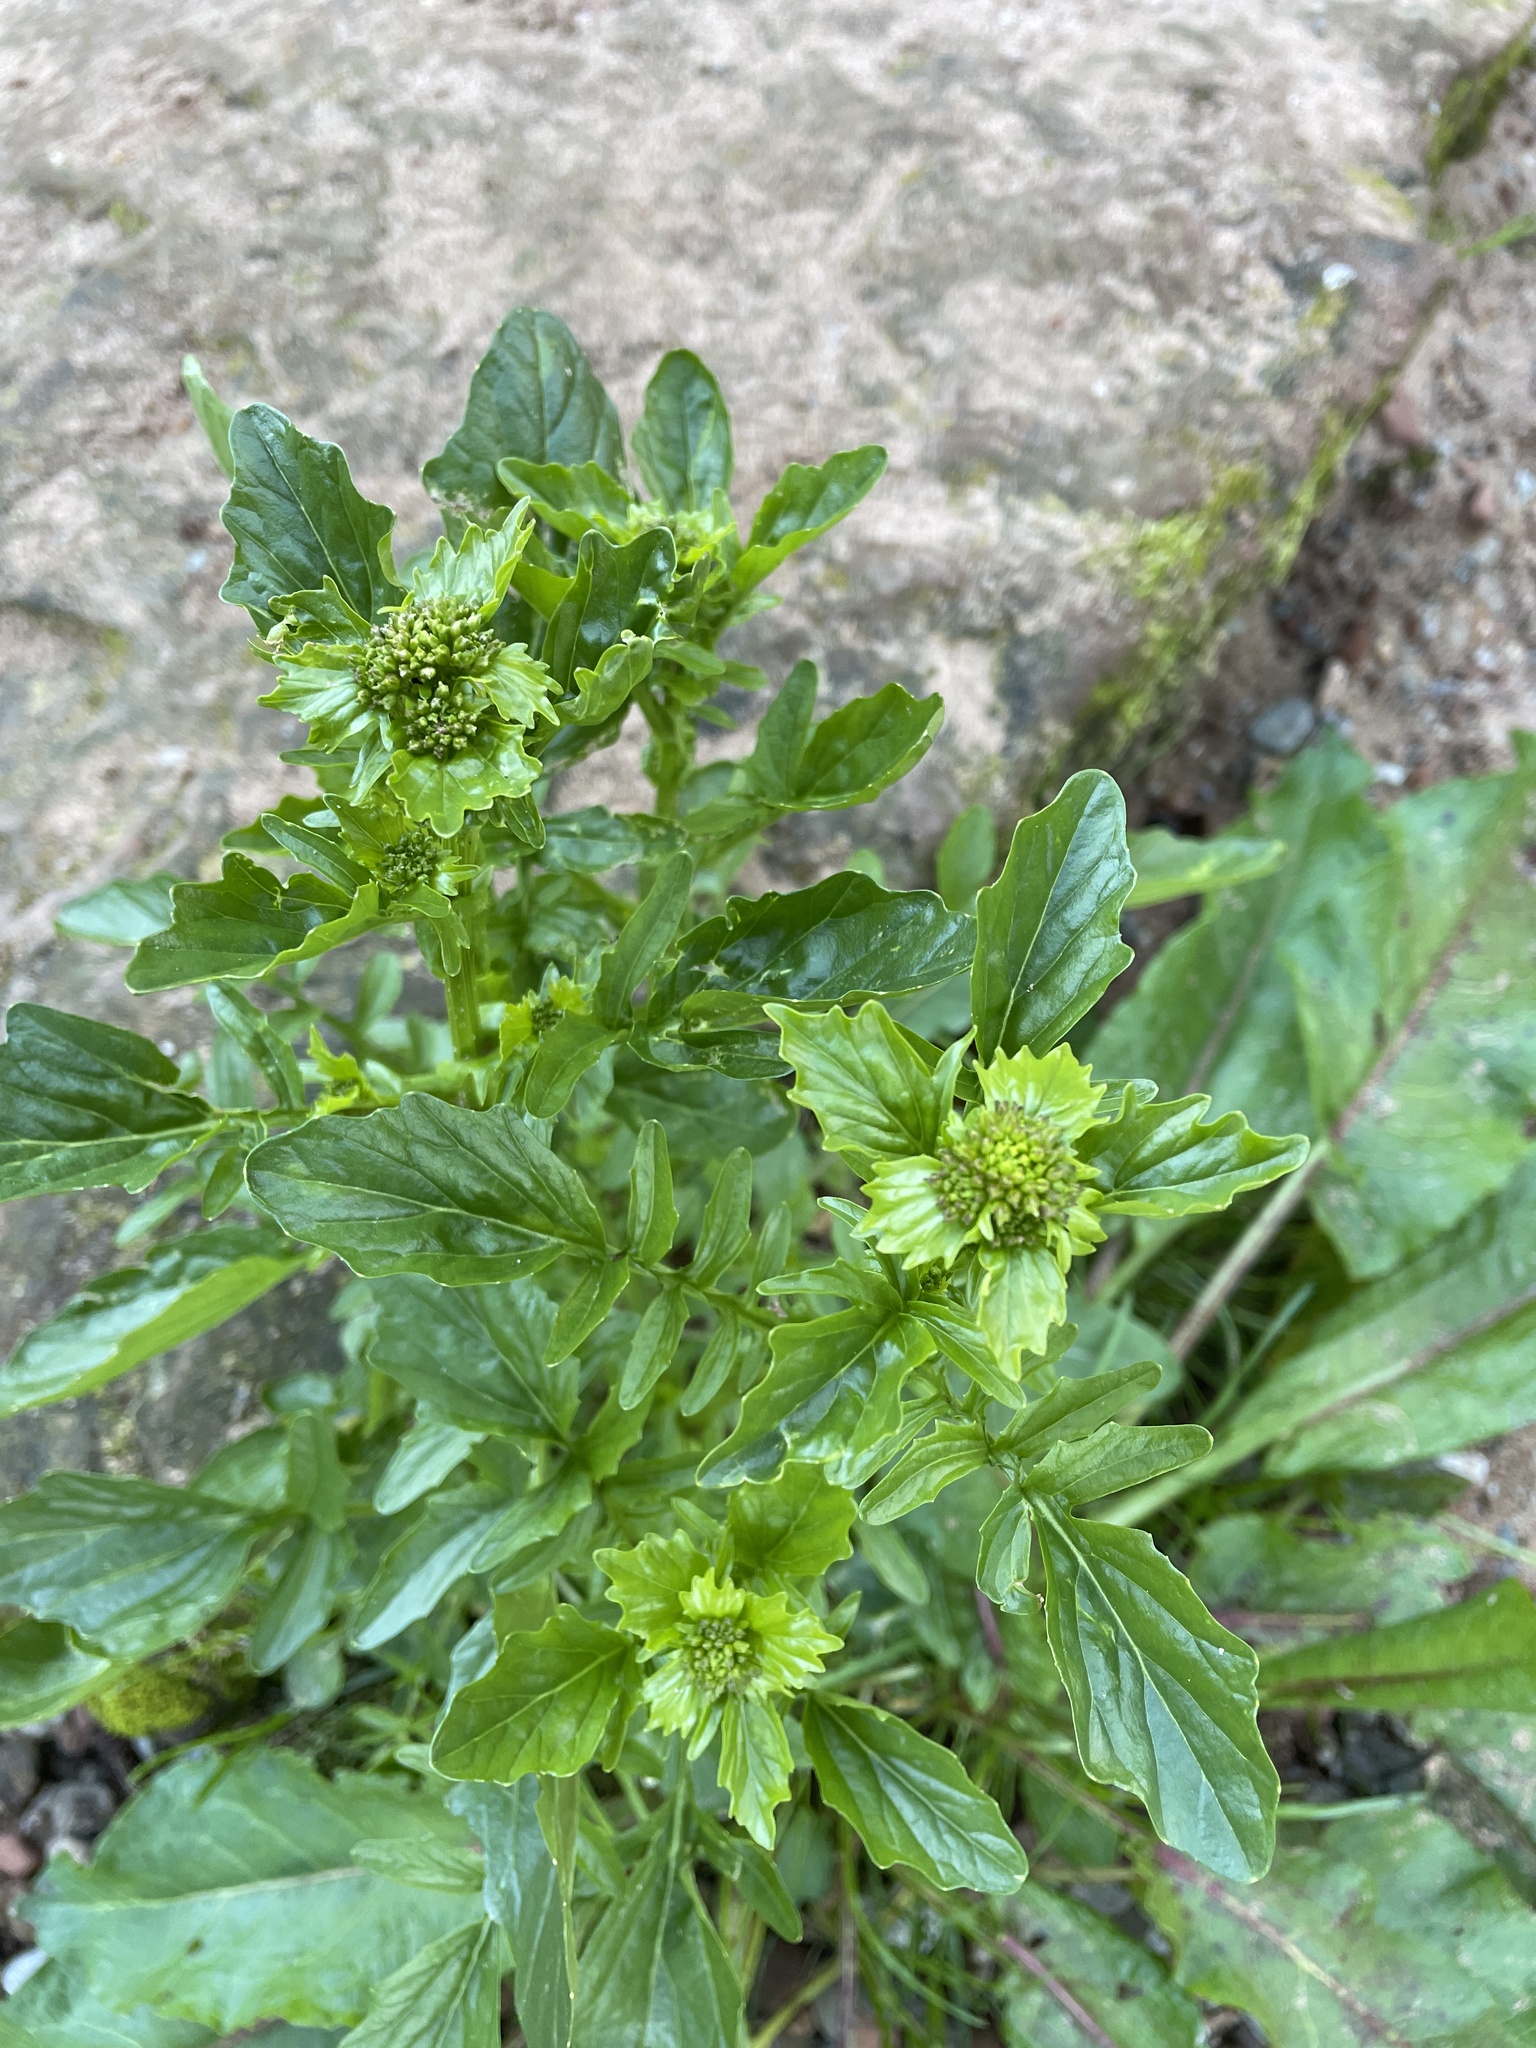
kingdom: Plantae
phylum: Tracheophyta
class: Magnoliopsida
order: Brassicales
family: Brassicaceae
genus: Barbarea
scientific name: Barbarea vulgaris
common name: Cressy-greens
